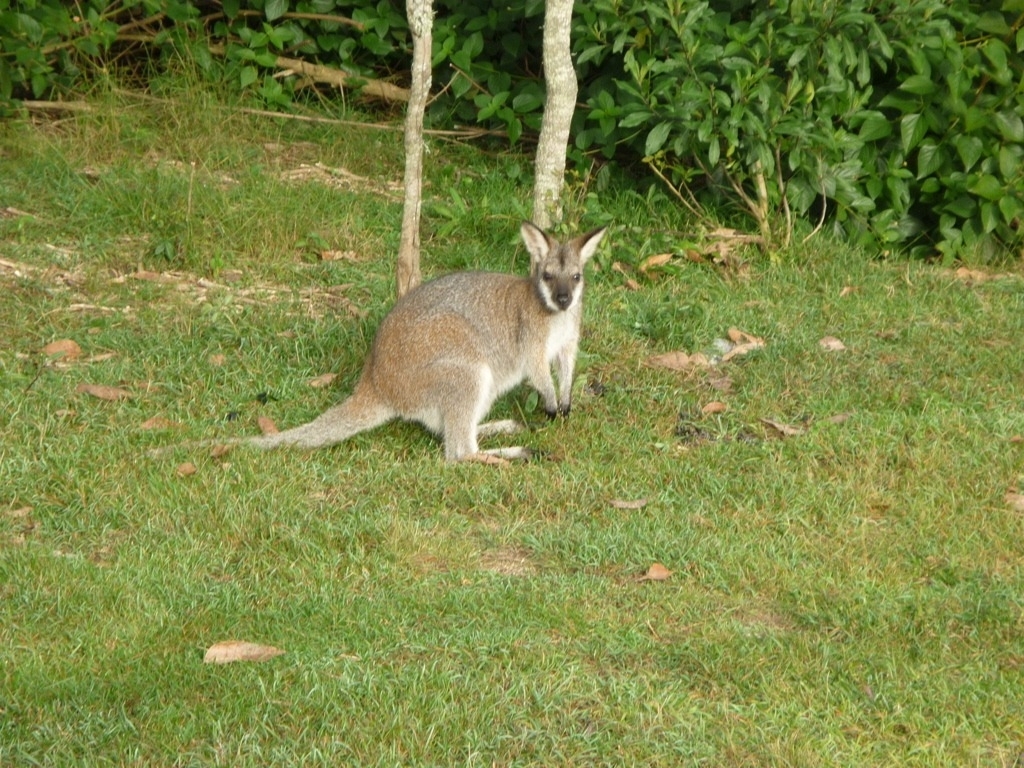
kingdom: Animalia
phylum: Chordata
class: Mammalia
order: Diprotodontia
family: Macropodidae
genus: Notamacropus
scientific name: Notamacropus rufogriseus
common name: Red-necked wallaby
